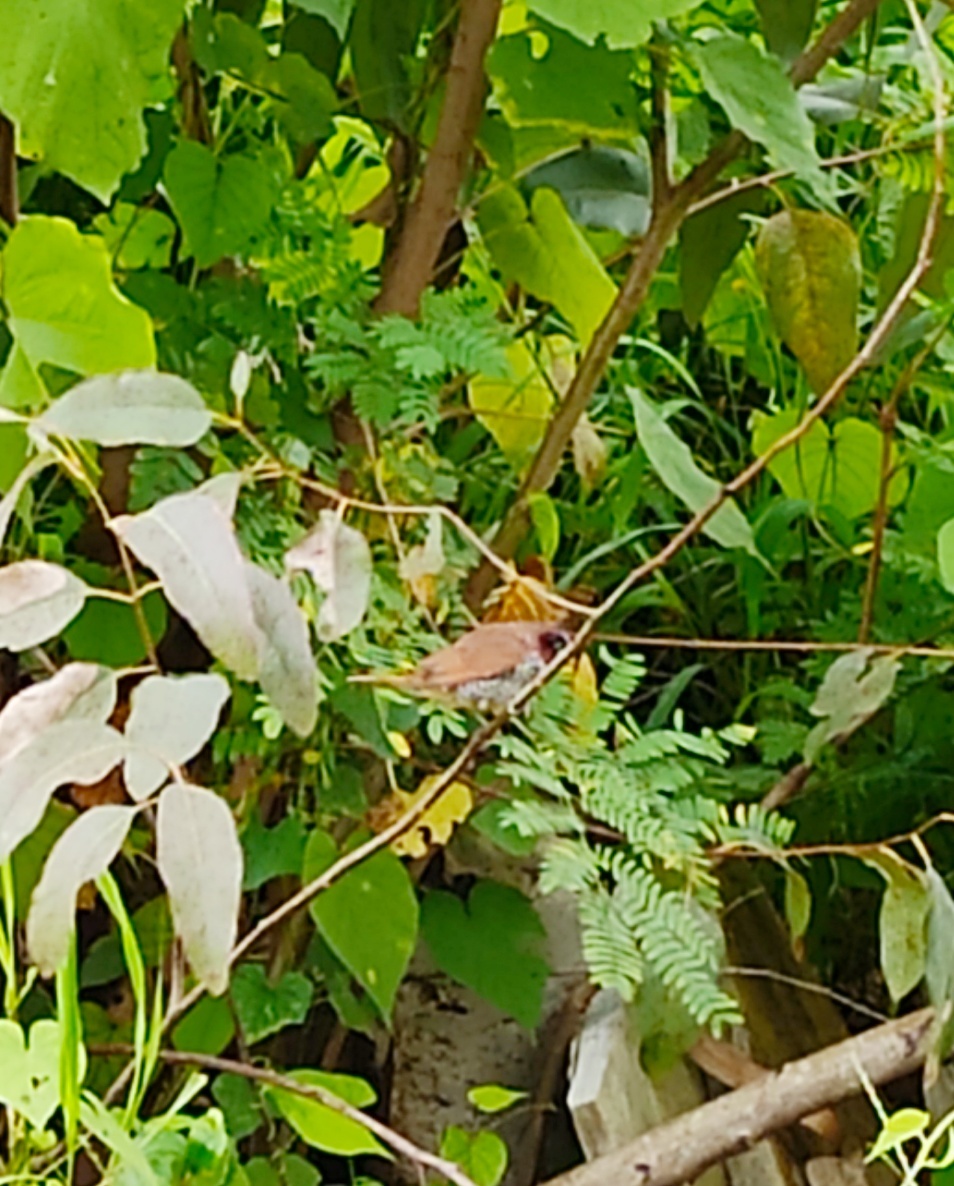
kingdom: Animalia
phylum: Chordata
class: Aves
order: Passeriformes
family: Estrildidae
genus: Lonchura
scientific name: Lonchura punctulata
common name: Scaly-breasted munia
